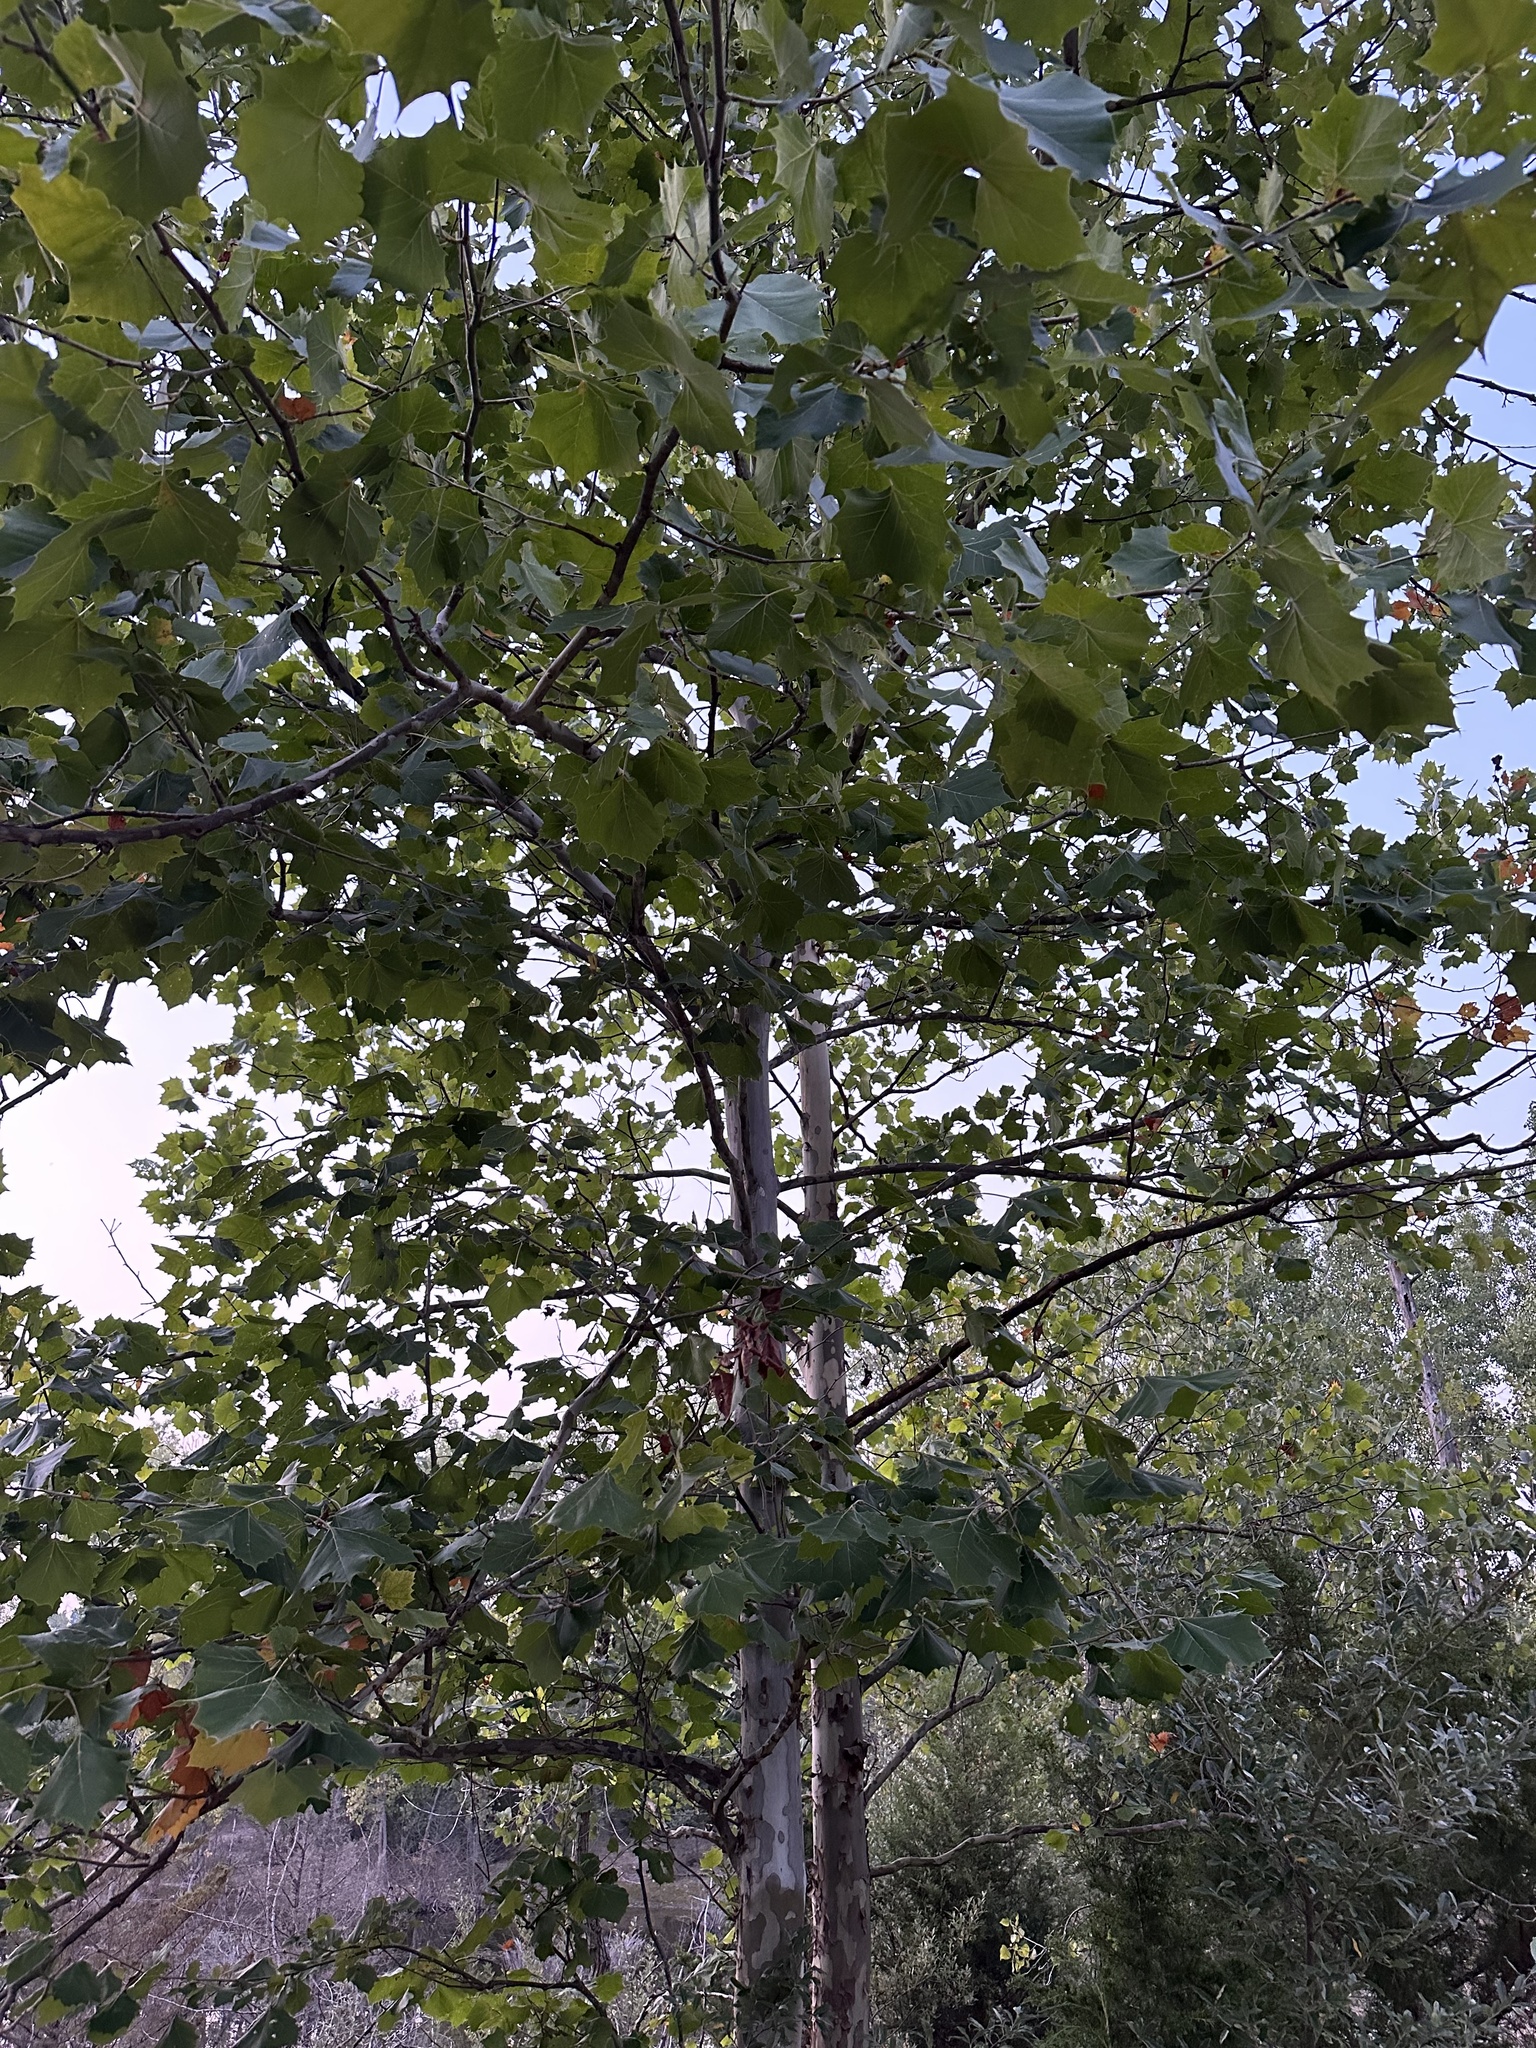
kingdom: Plantae
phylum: Tracheophyta
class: Magnoliopsida
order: Proteales
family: Platanaceae
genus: Platanus
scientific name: Platanus occidentalis
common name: American sycamore
